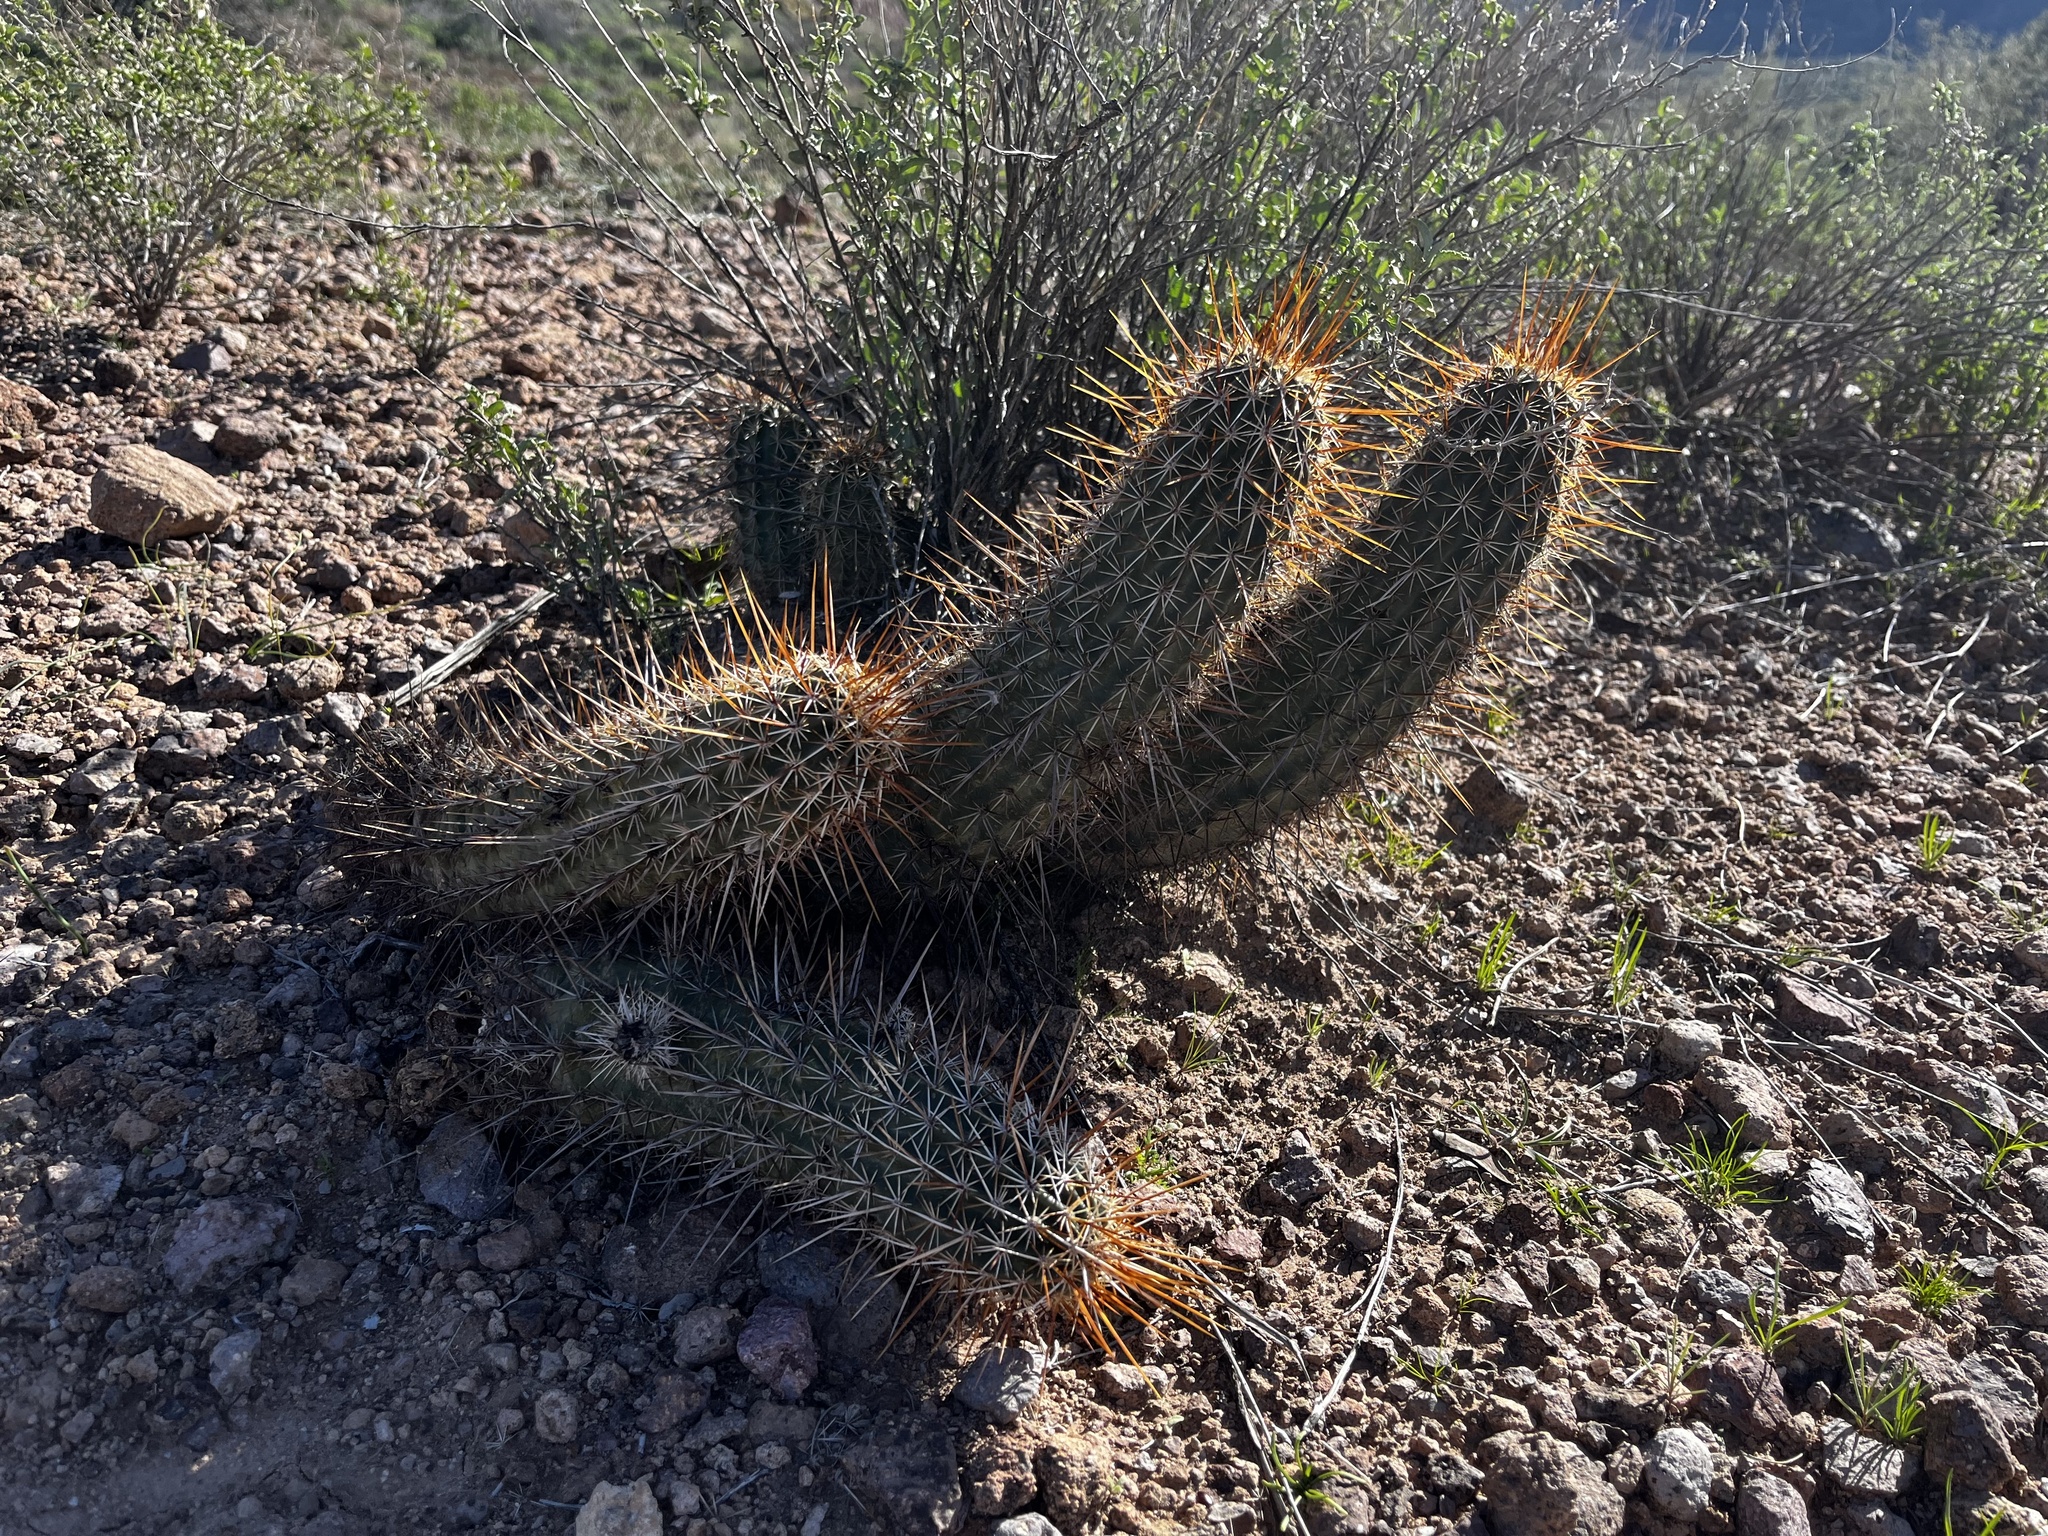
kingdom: Plantae
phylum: Tracheophyta
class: Magnoliopsida
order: Caryophyllales
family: Cactaceae
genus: Echinocereus
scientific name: Echinocereus engelmannii
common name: Engelmann's hedgehog cactus
